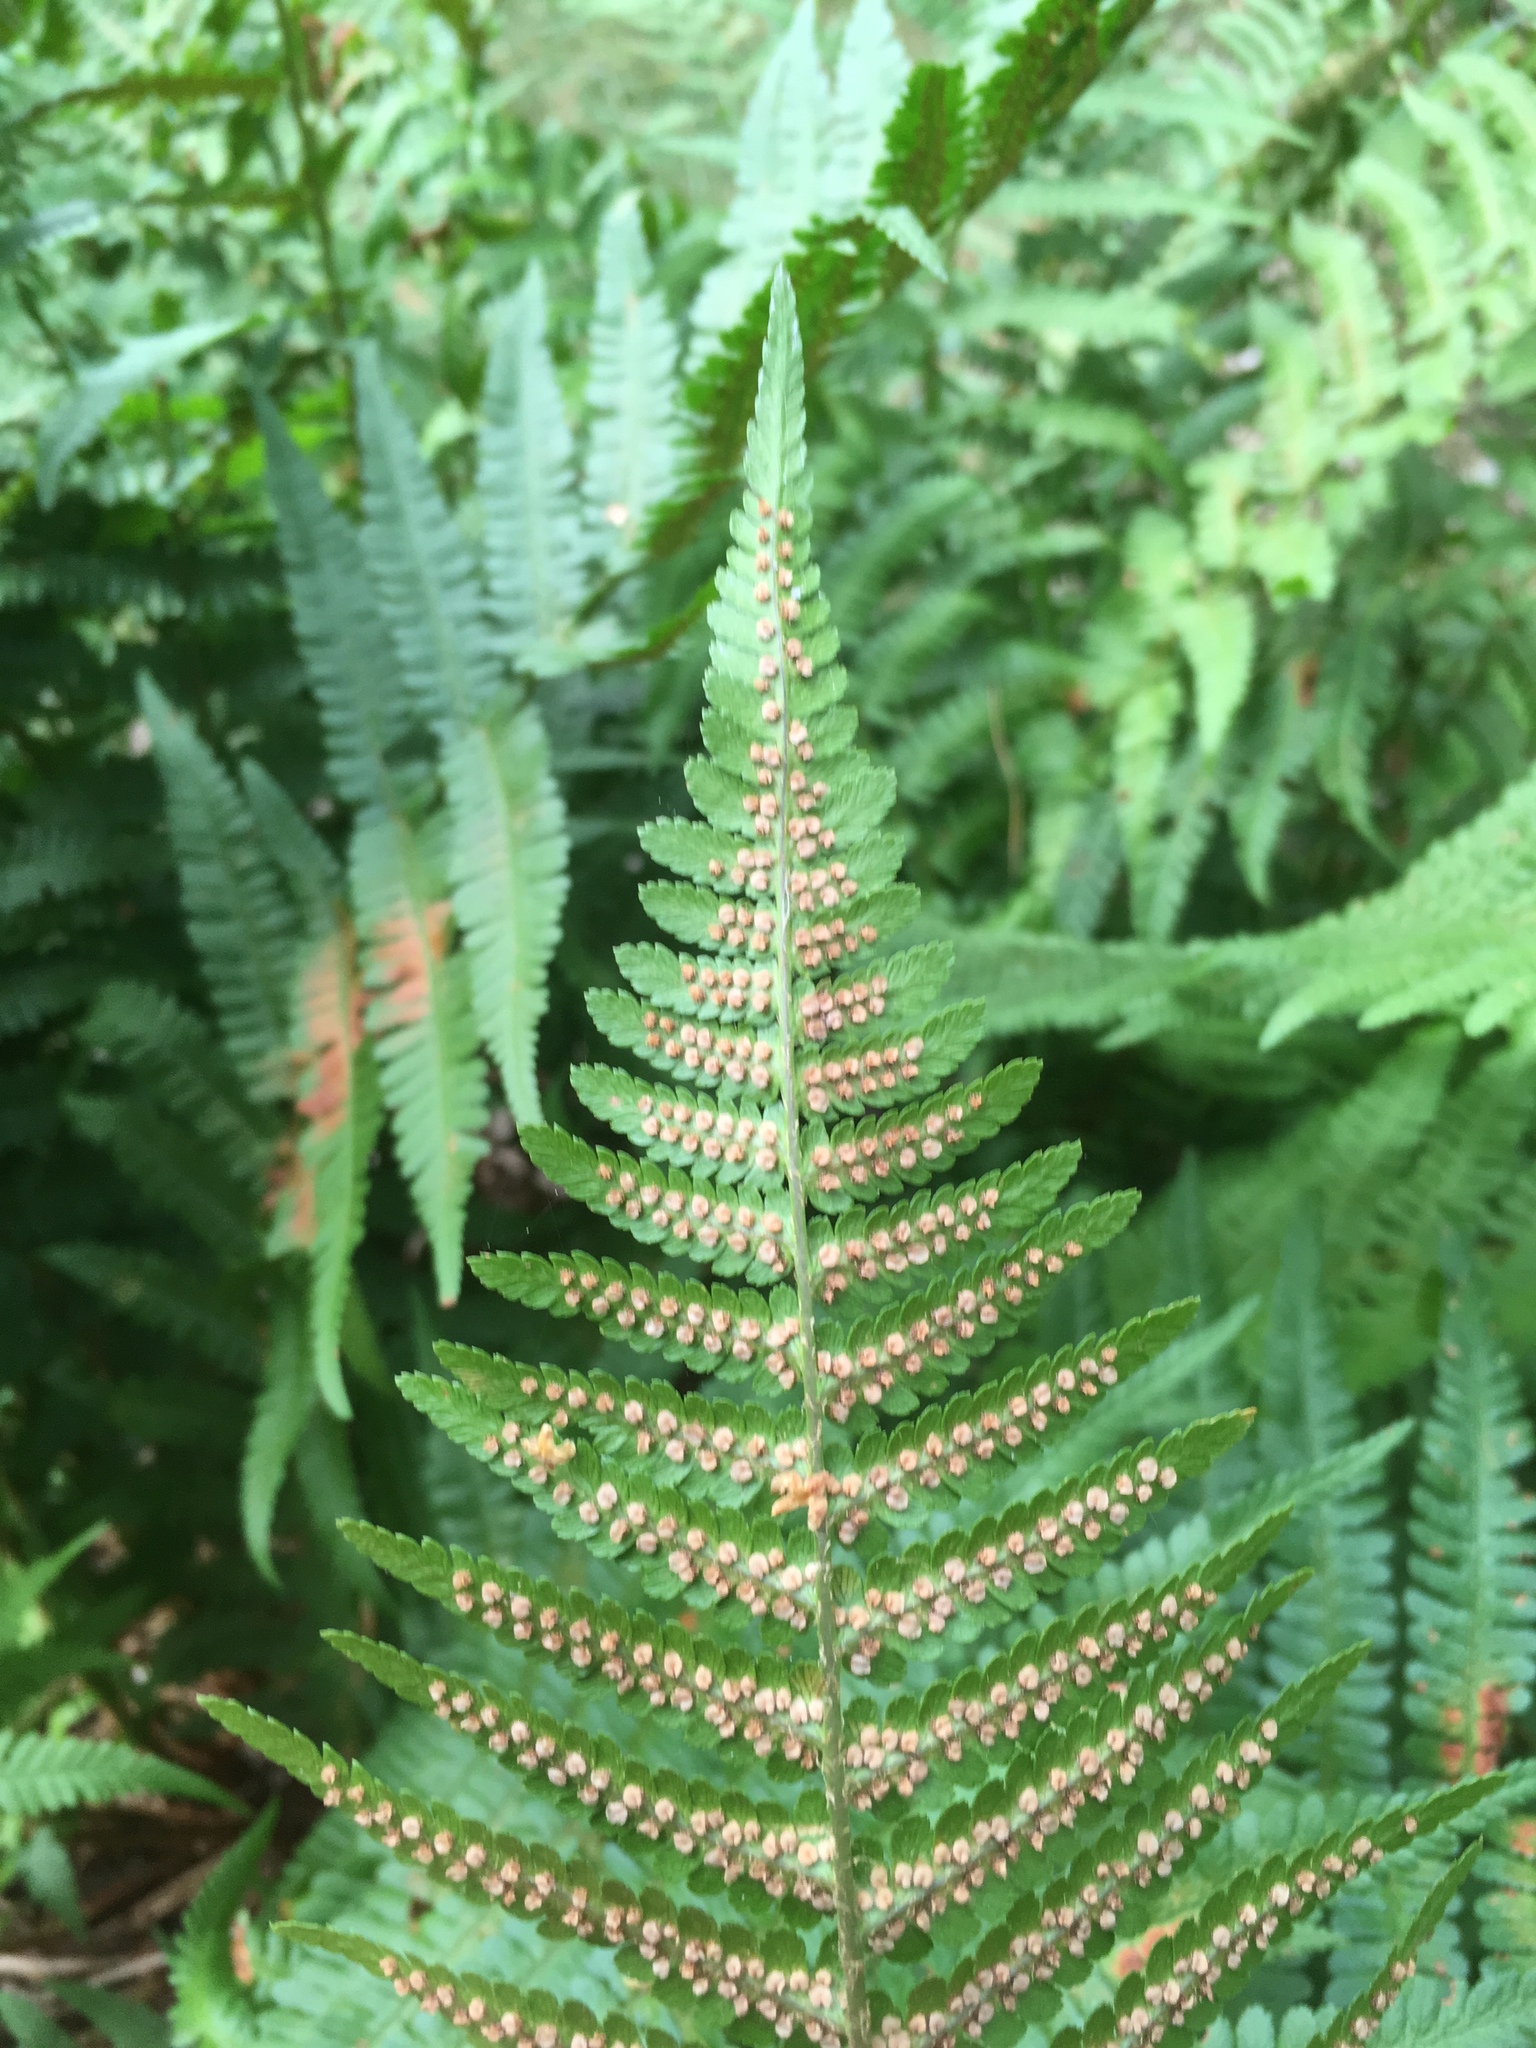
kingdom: Plantae
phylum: Tracheophyta
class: Polypodiopsida
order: Polypodiales
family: Dryopteridaceae
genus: Dryopteris
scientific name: Dryopteris filix-mas
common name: Male fern
